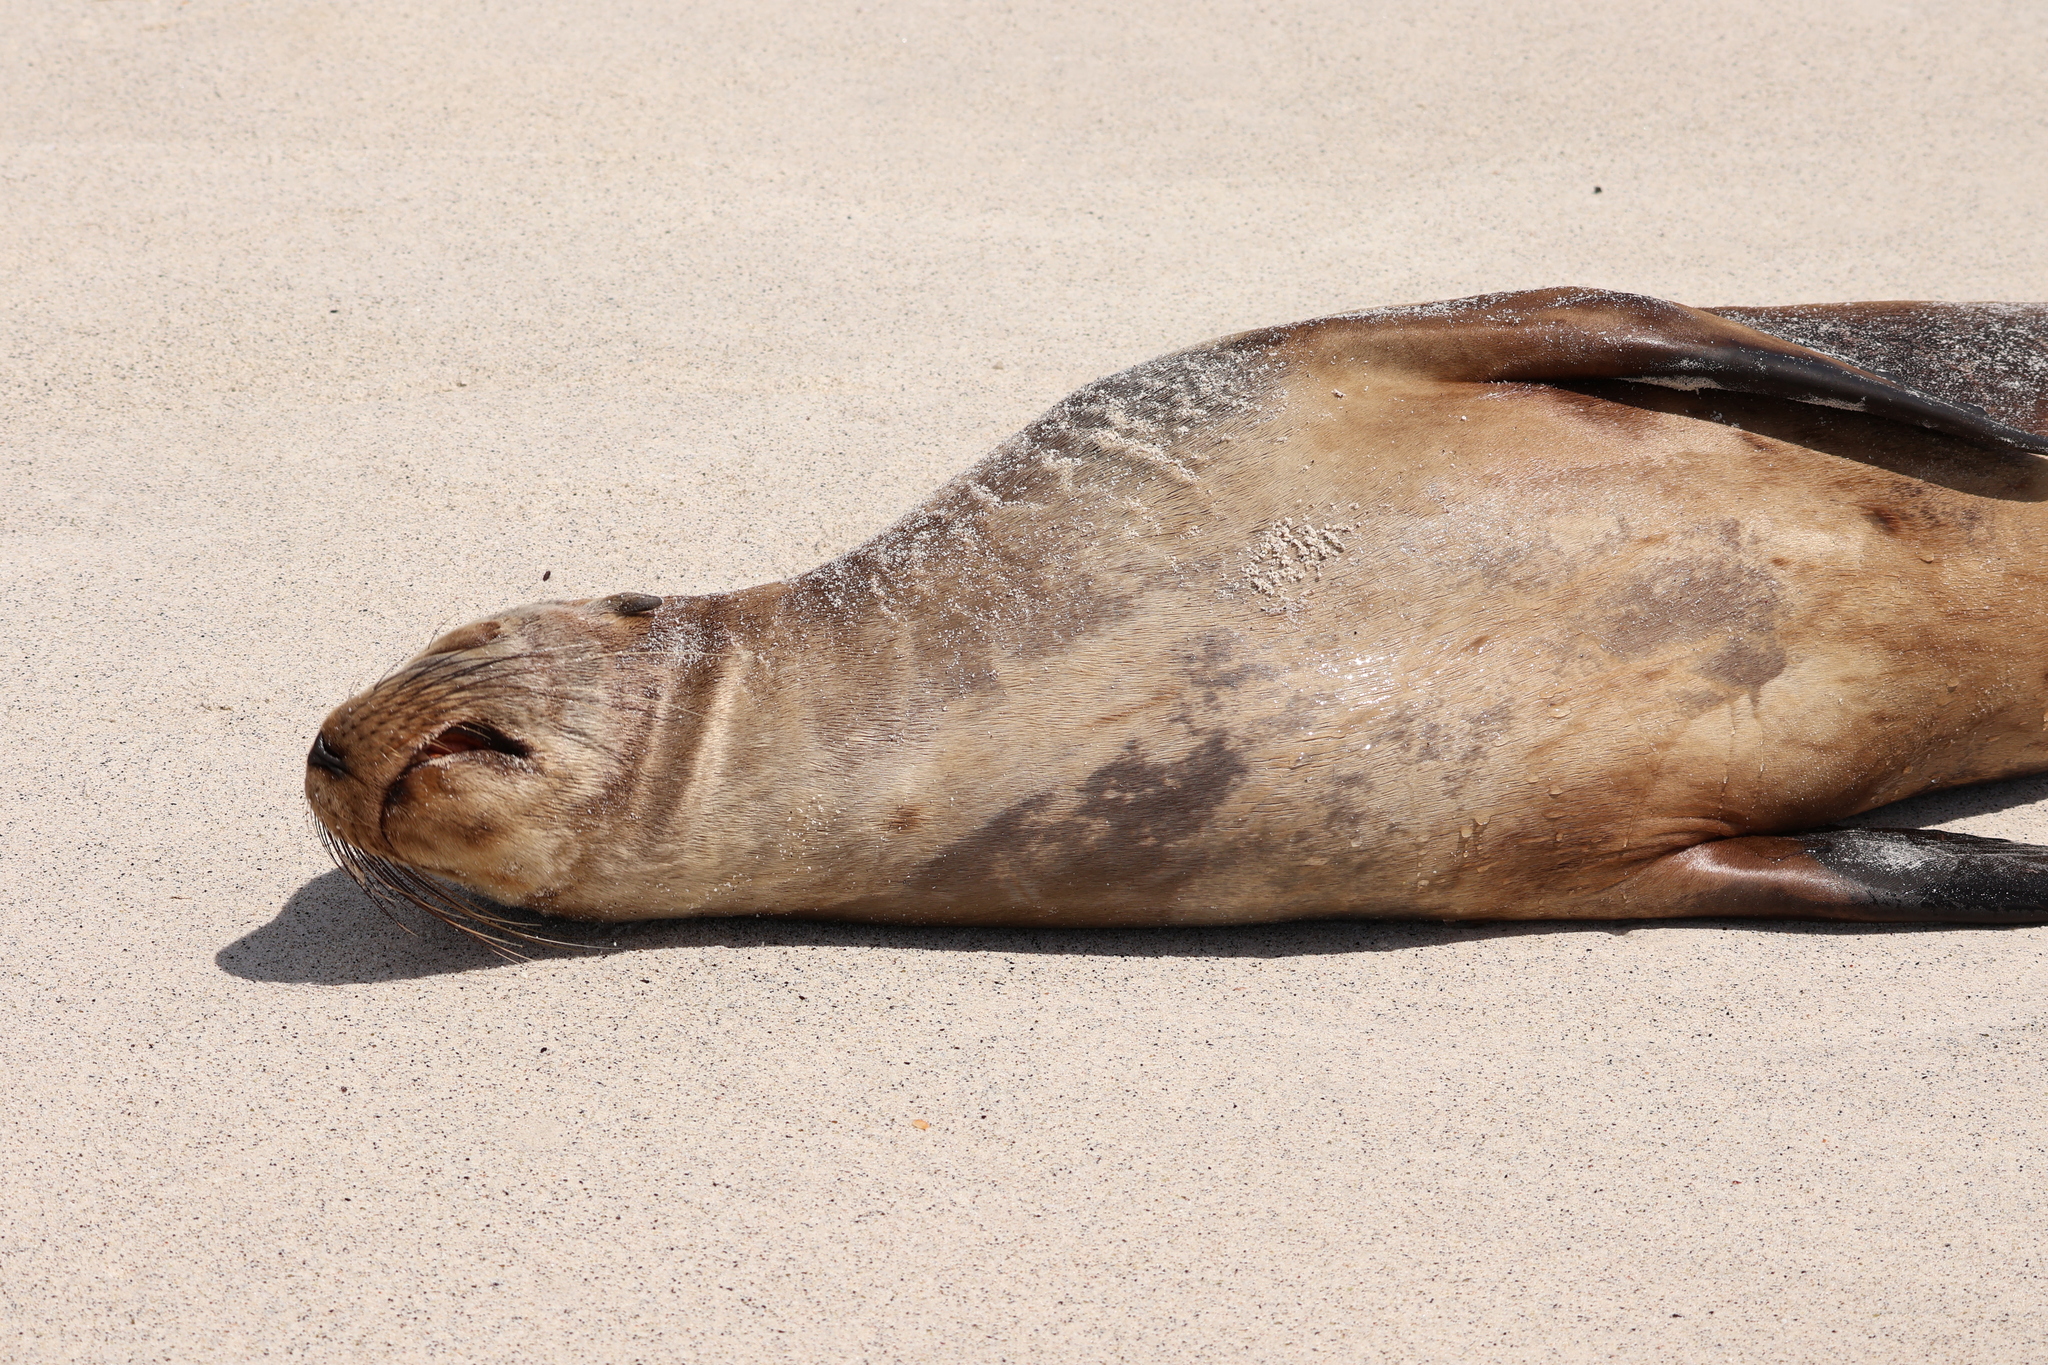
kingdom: Animalia
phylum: Chordata
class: Mammalia
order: Carnivora
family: Otariidae
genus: Zalophus
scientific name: Zalophus wollebaeki
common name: Galapagos sea lion
